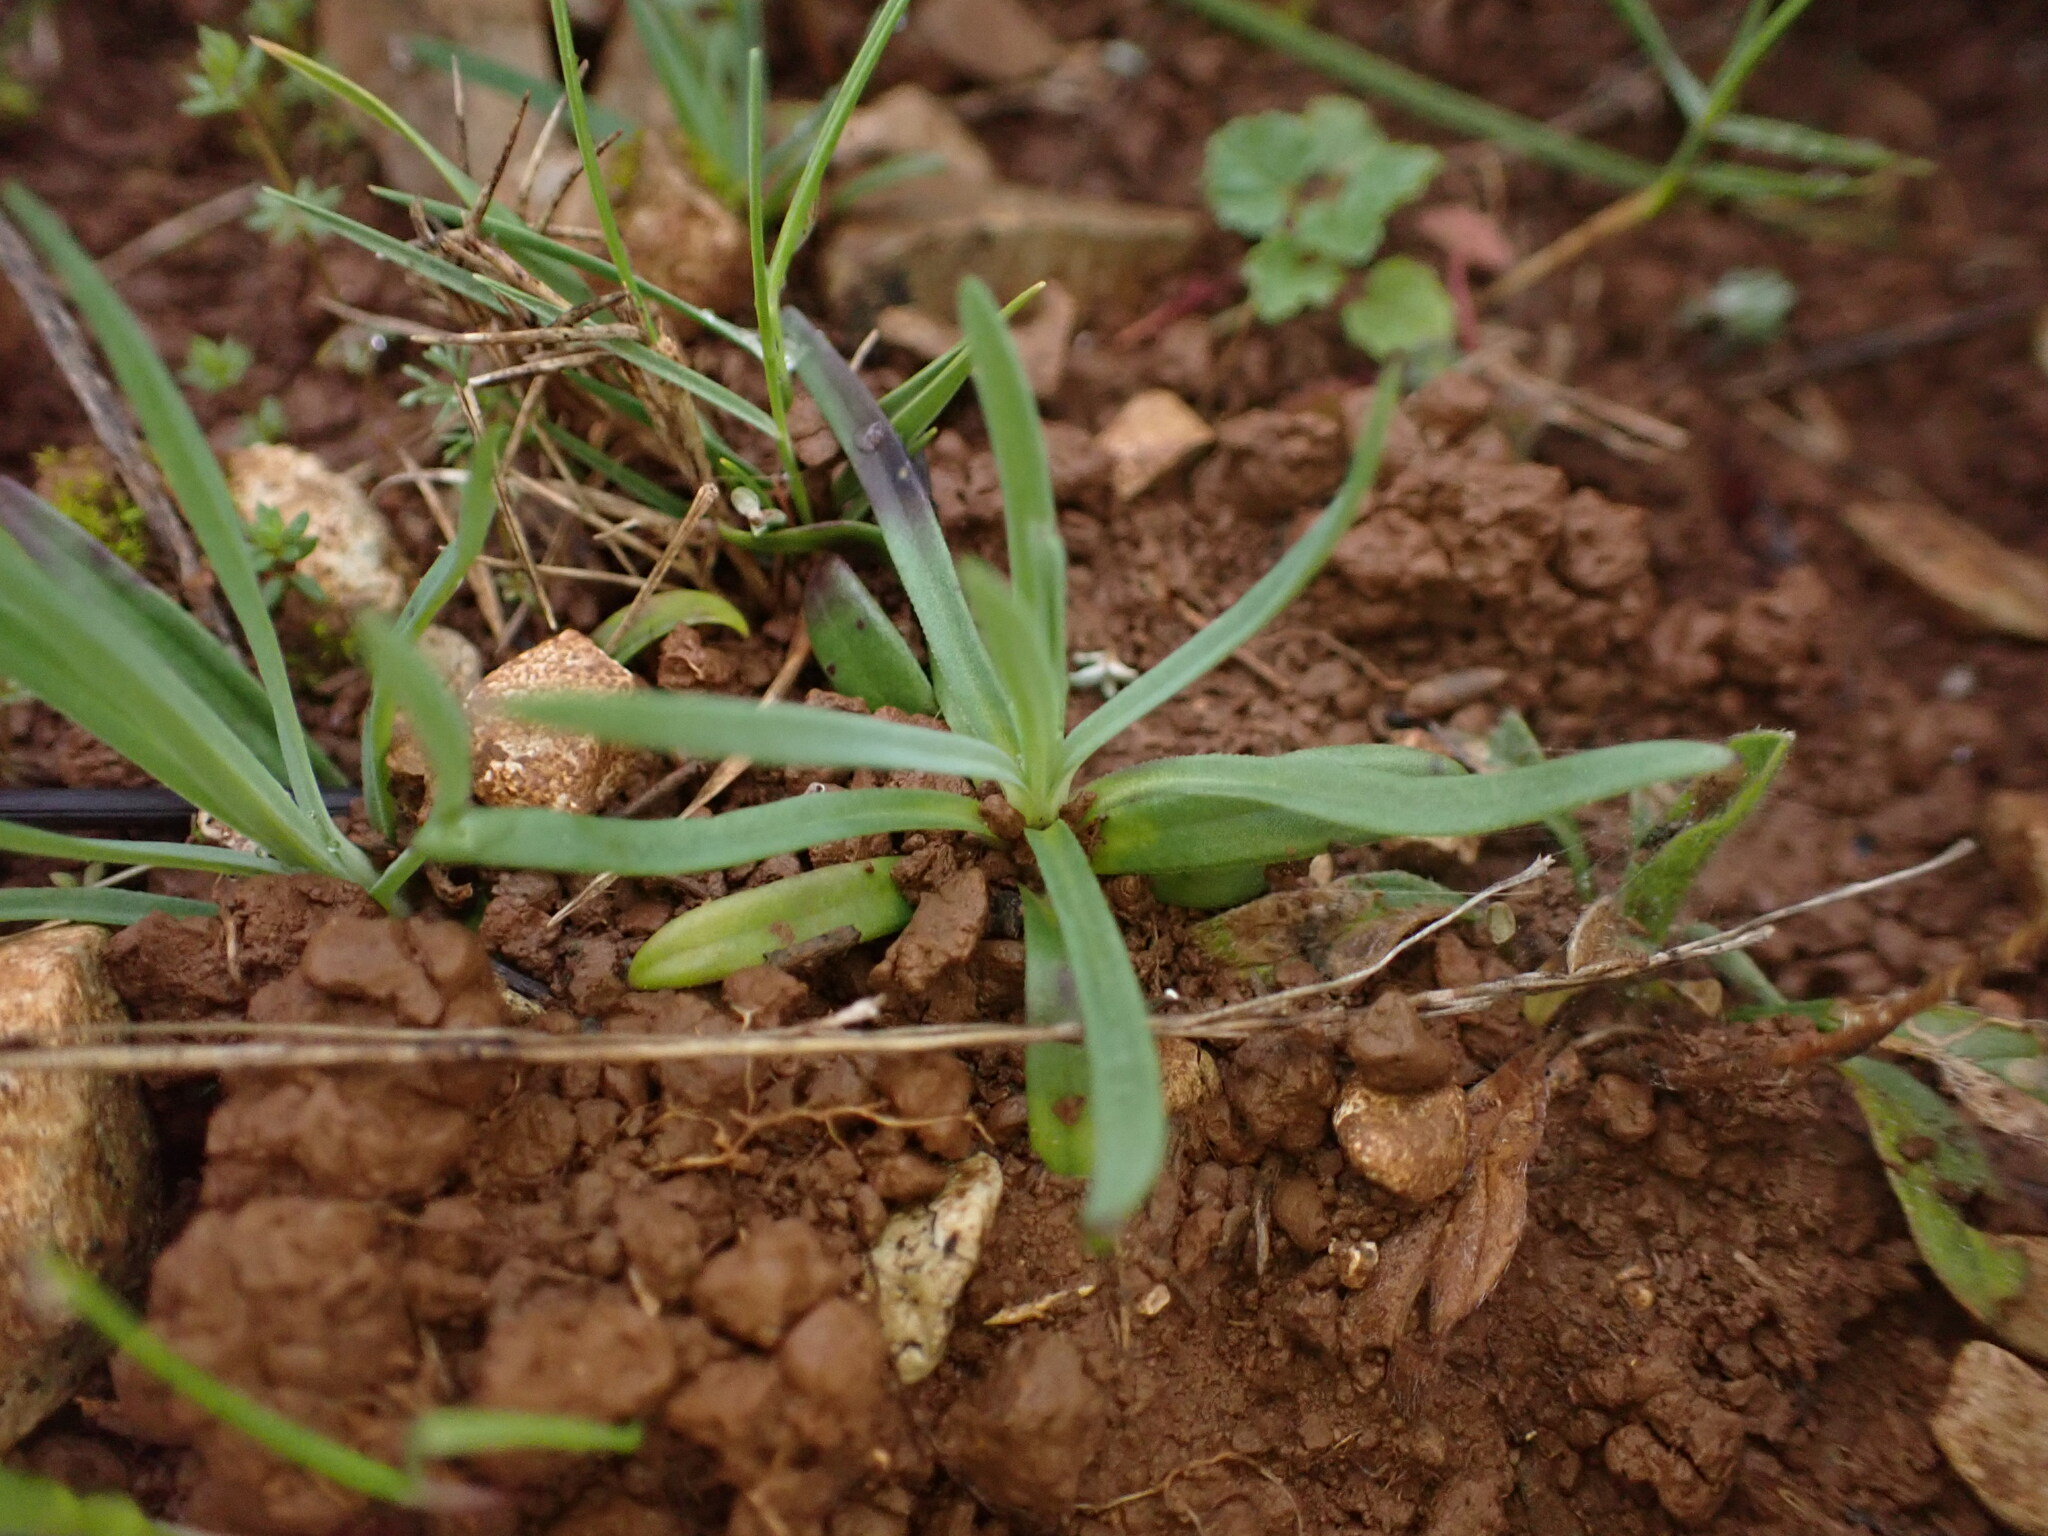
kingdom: Plantae
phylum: Tracheophyta
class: Magnoliopsida
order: Caryophyllales
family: Caryophyllaceae
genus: Petrorhagia
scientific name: Petrorhagia prolifera
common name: Proliferous pink
